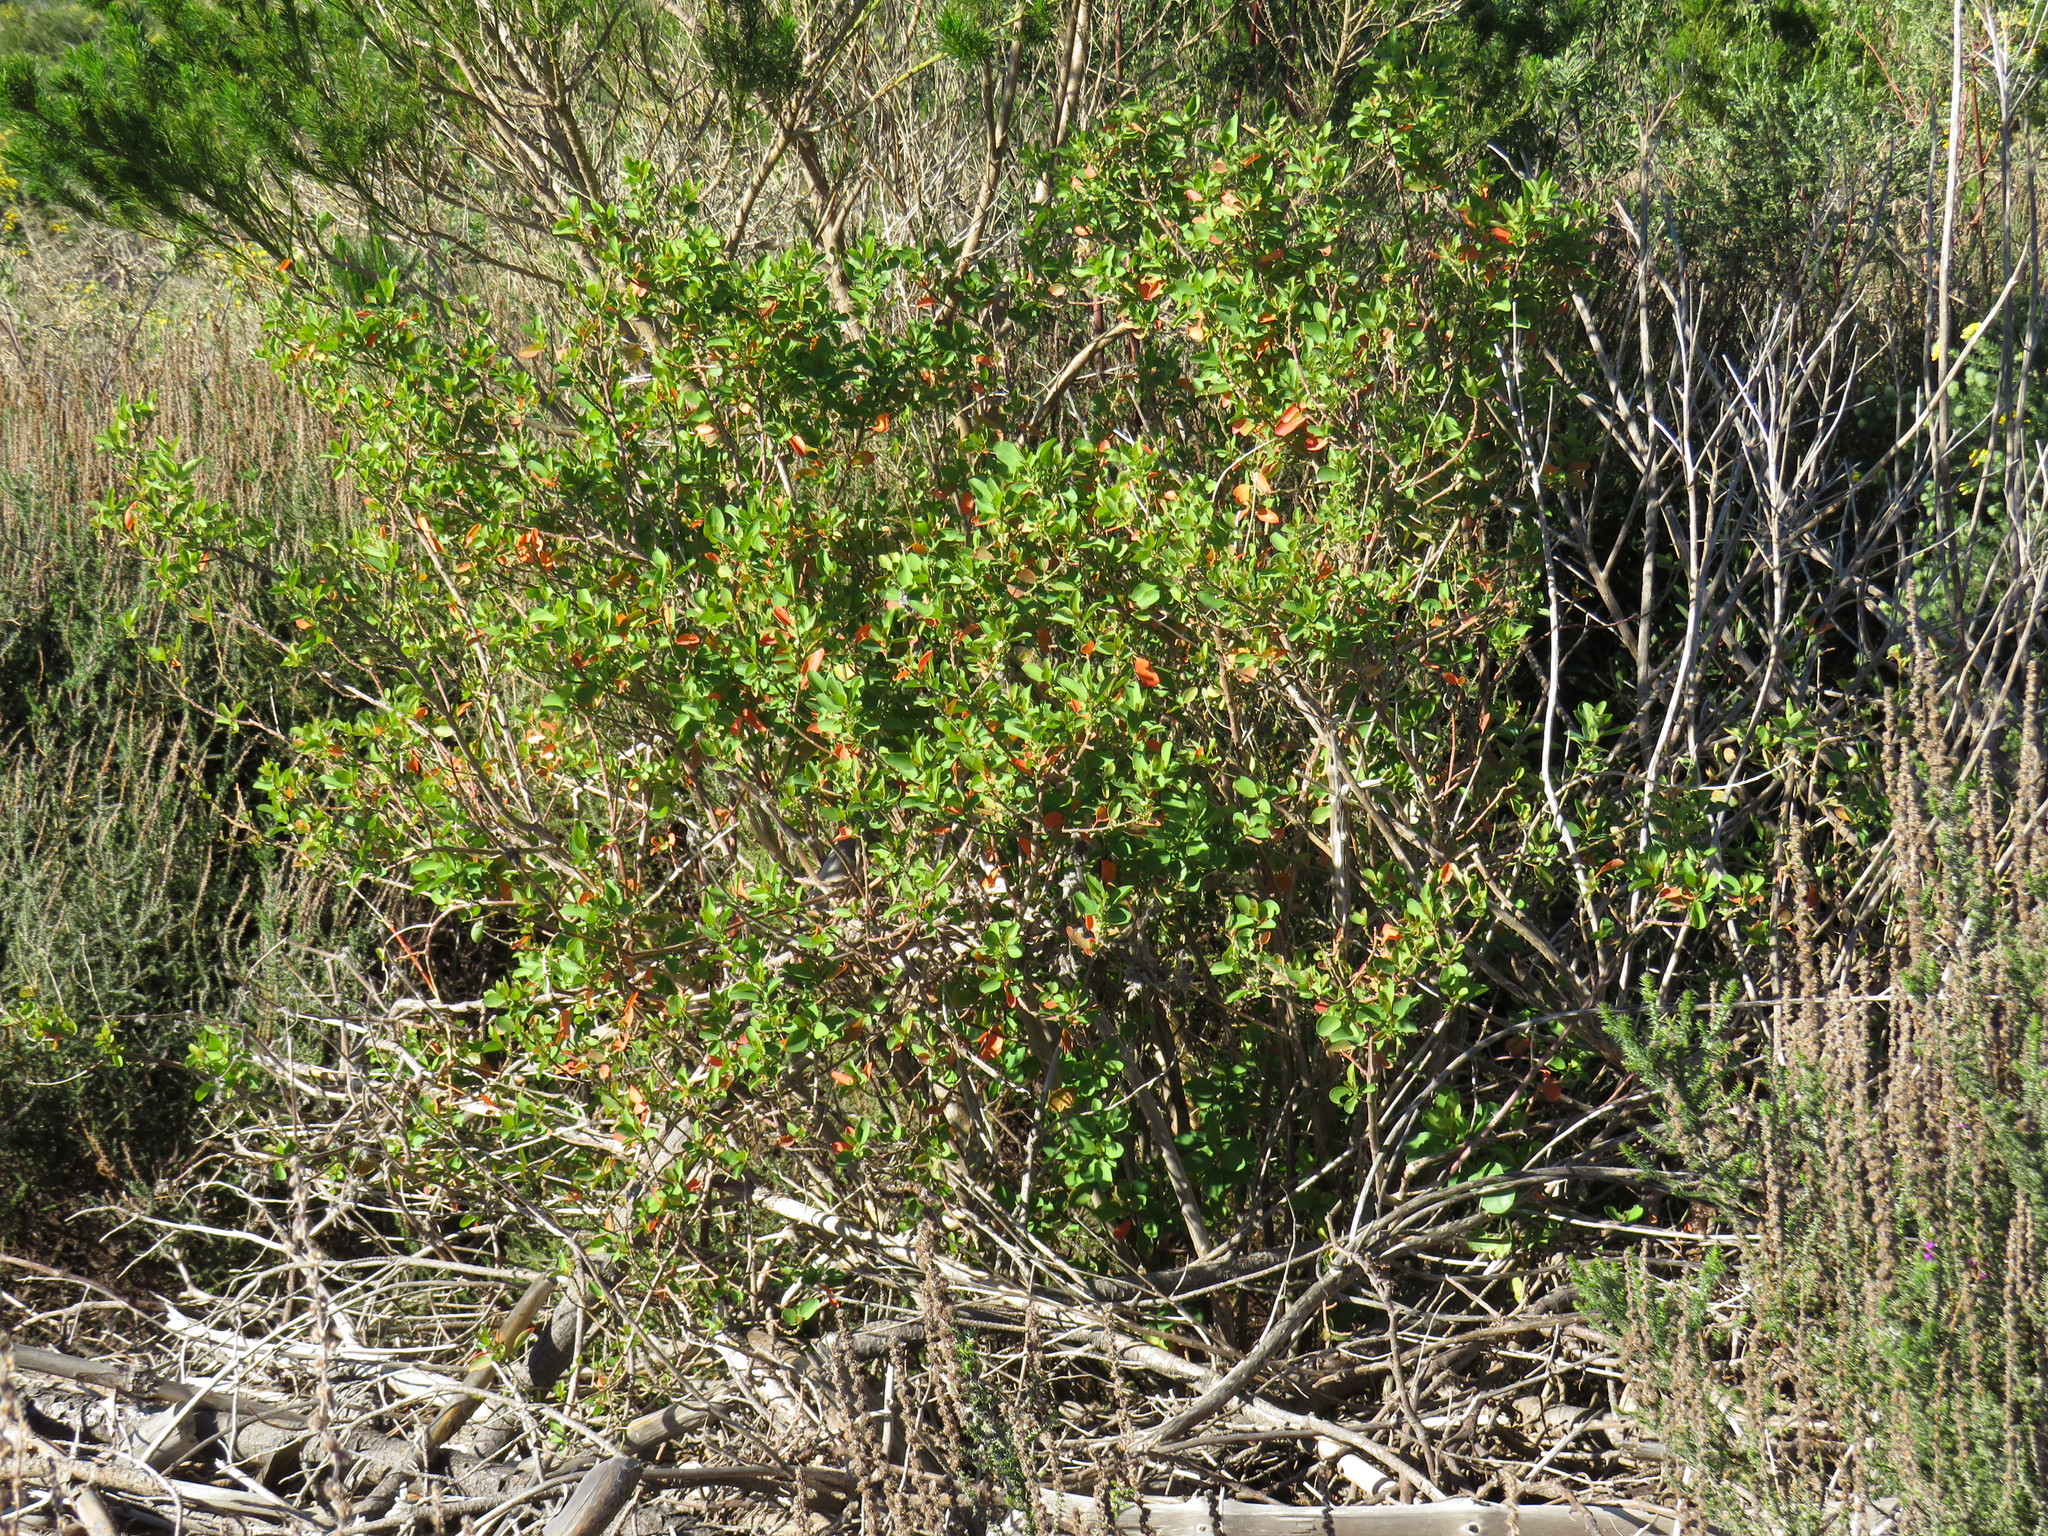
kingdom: Plantae
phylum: Tracheophyta
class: Magnoliopsida
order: Malpighiales
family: Peraceae
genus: Clutia
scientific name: Clutia pulchella
